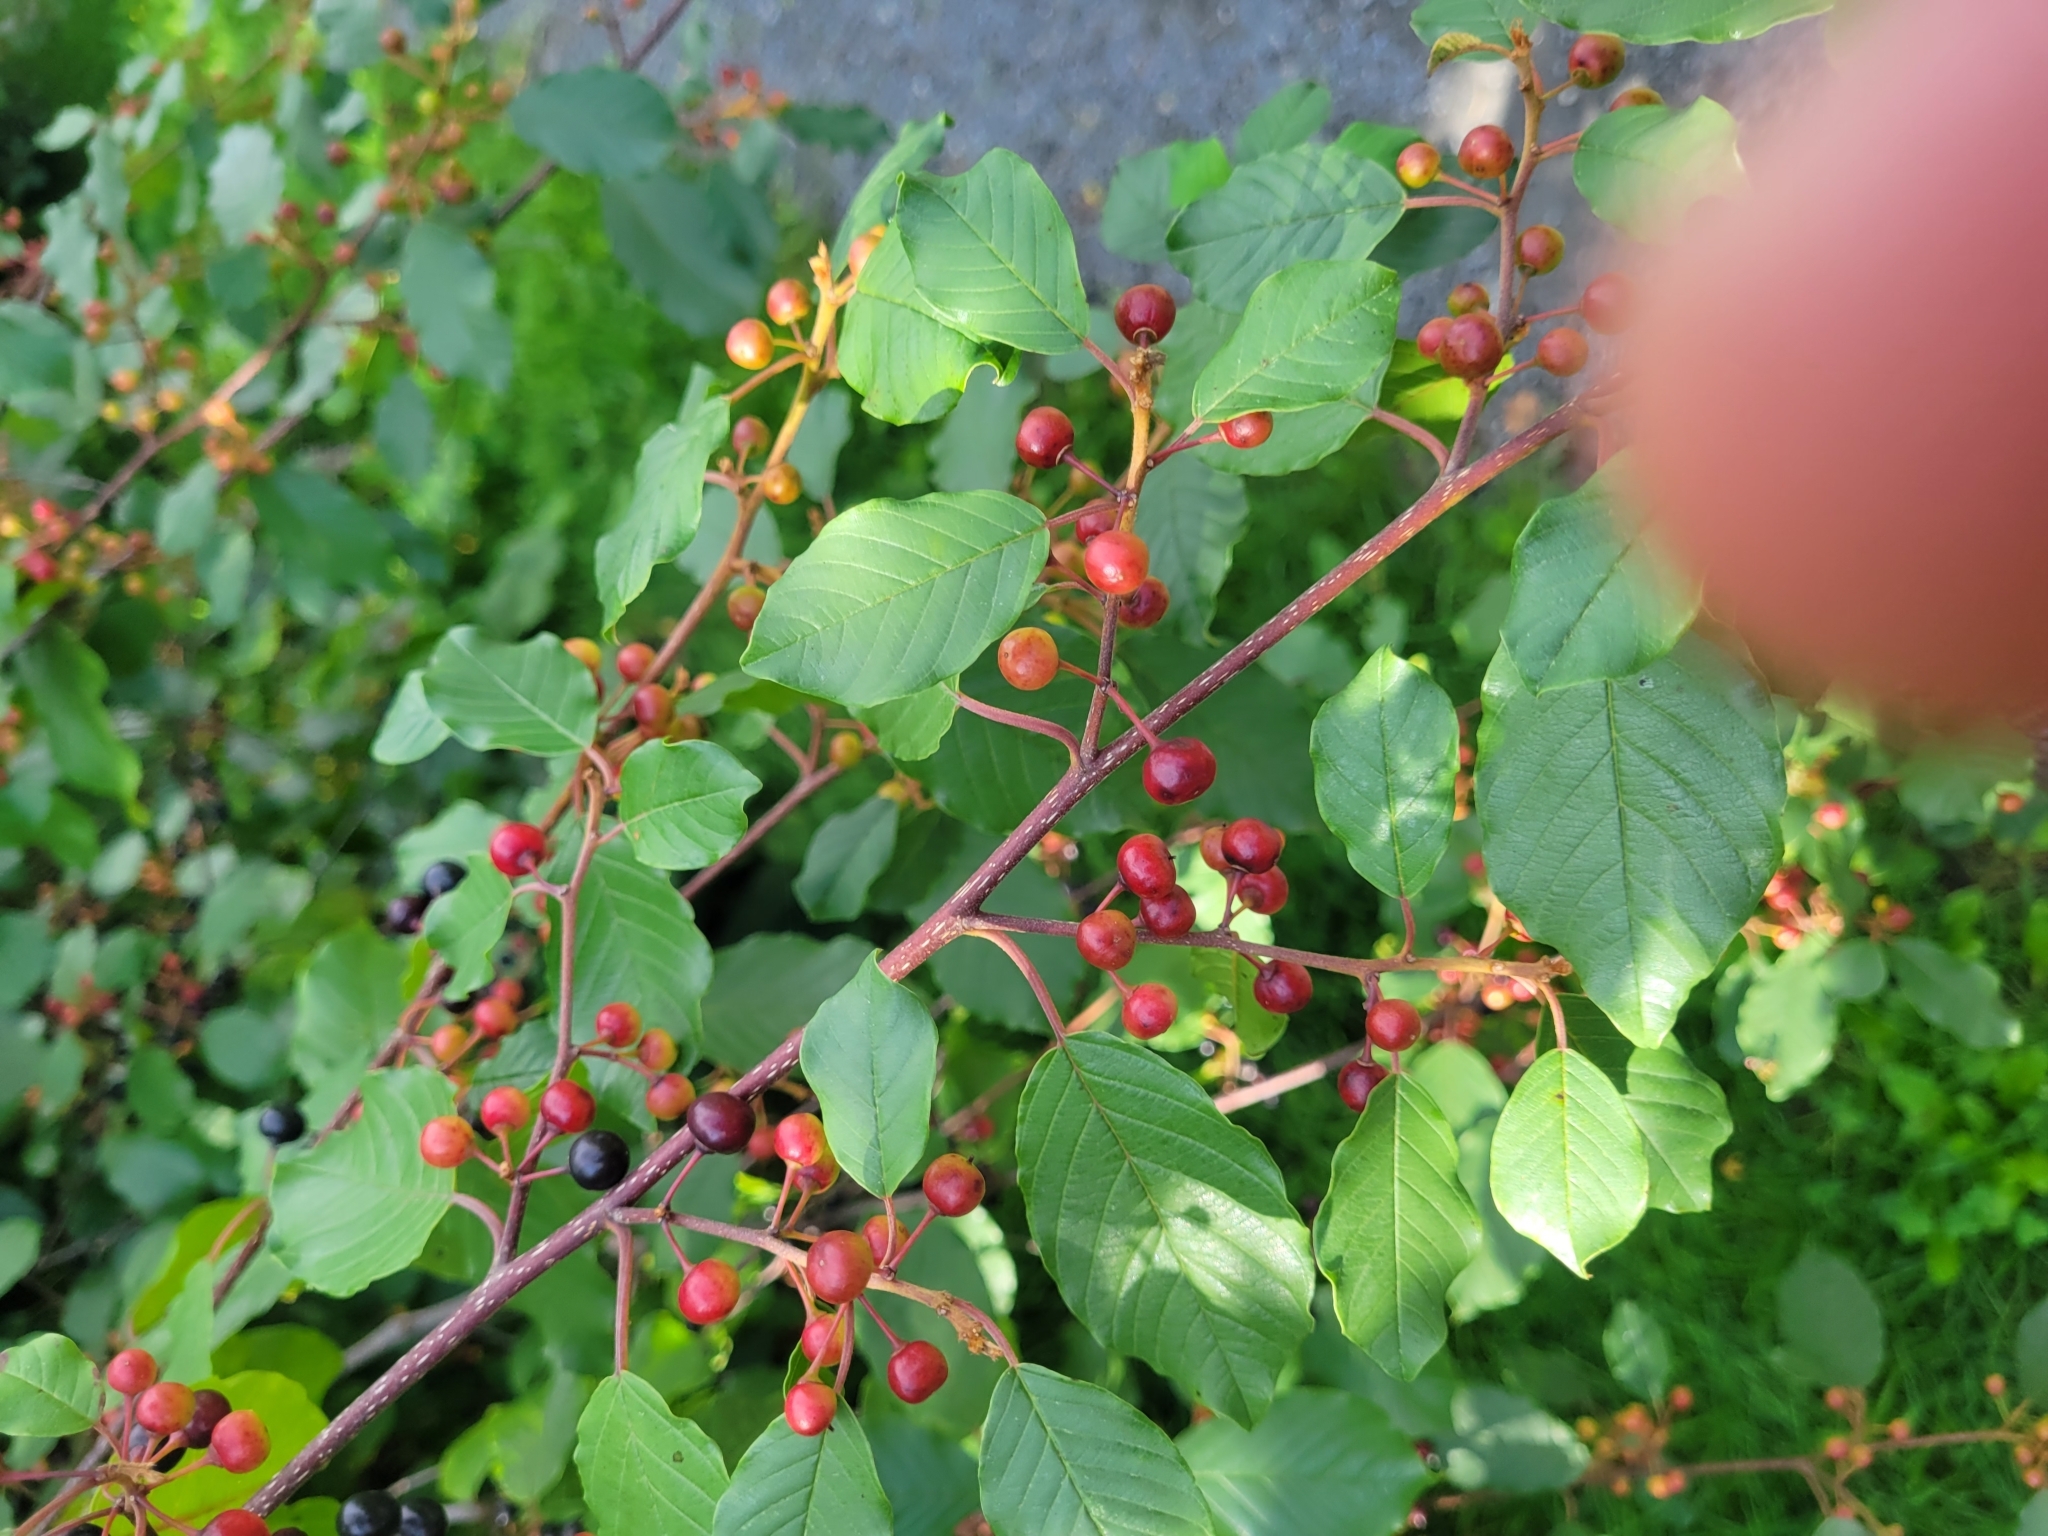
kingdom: Plantae
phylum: Tracheophyta
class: Magnoliopsida
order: Rosales
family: Rhamnaceae
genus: Frangula
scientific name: Frangula alnus
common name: Alder buckthorn
